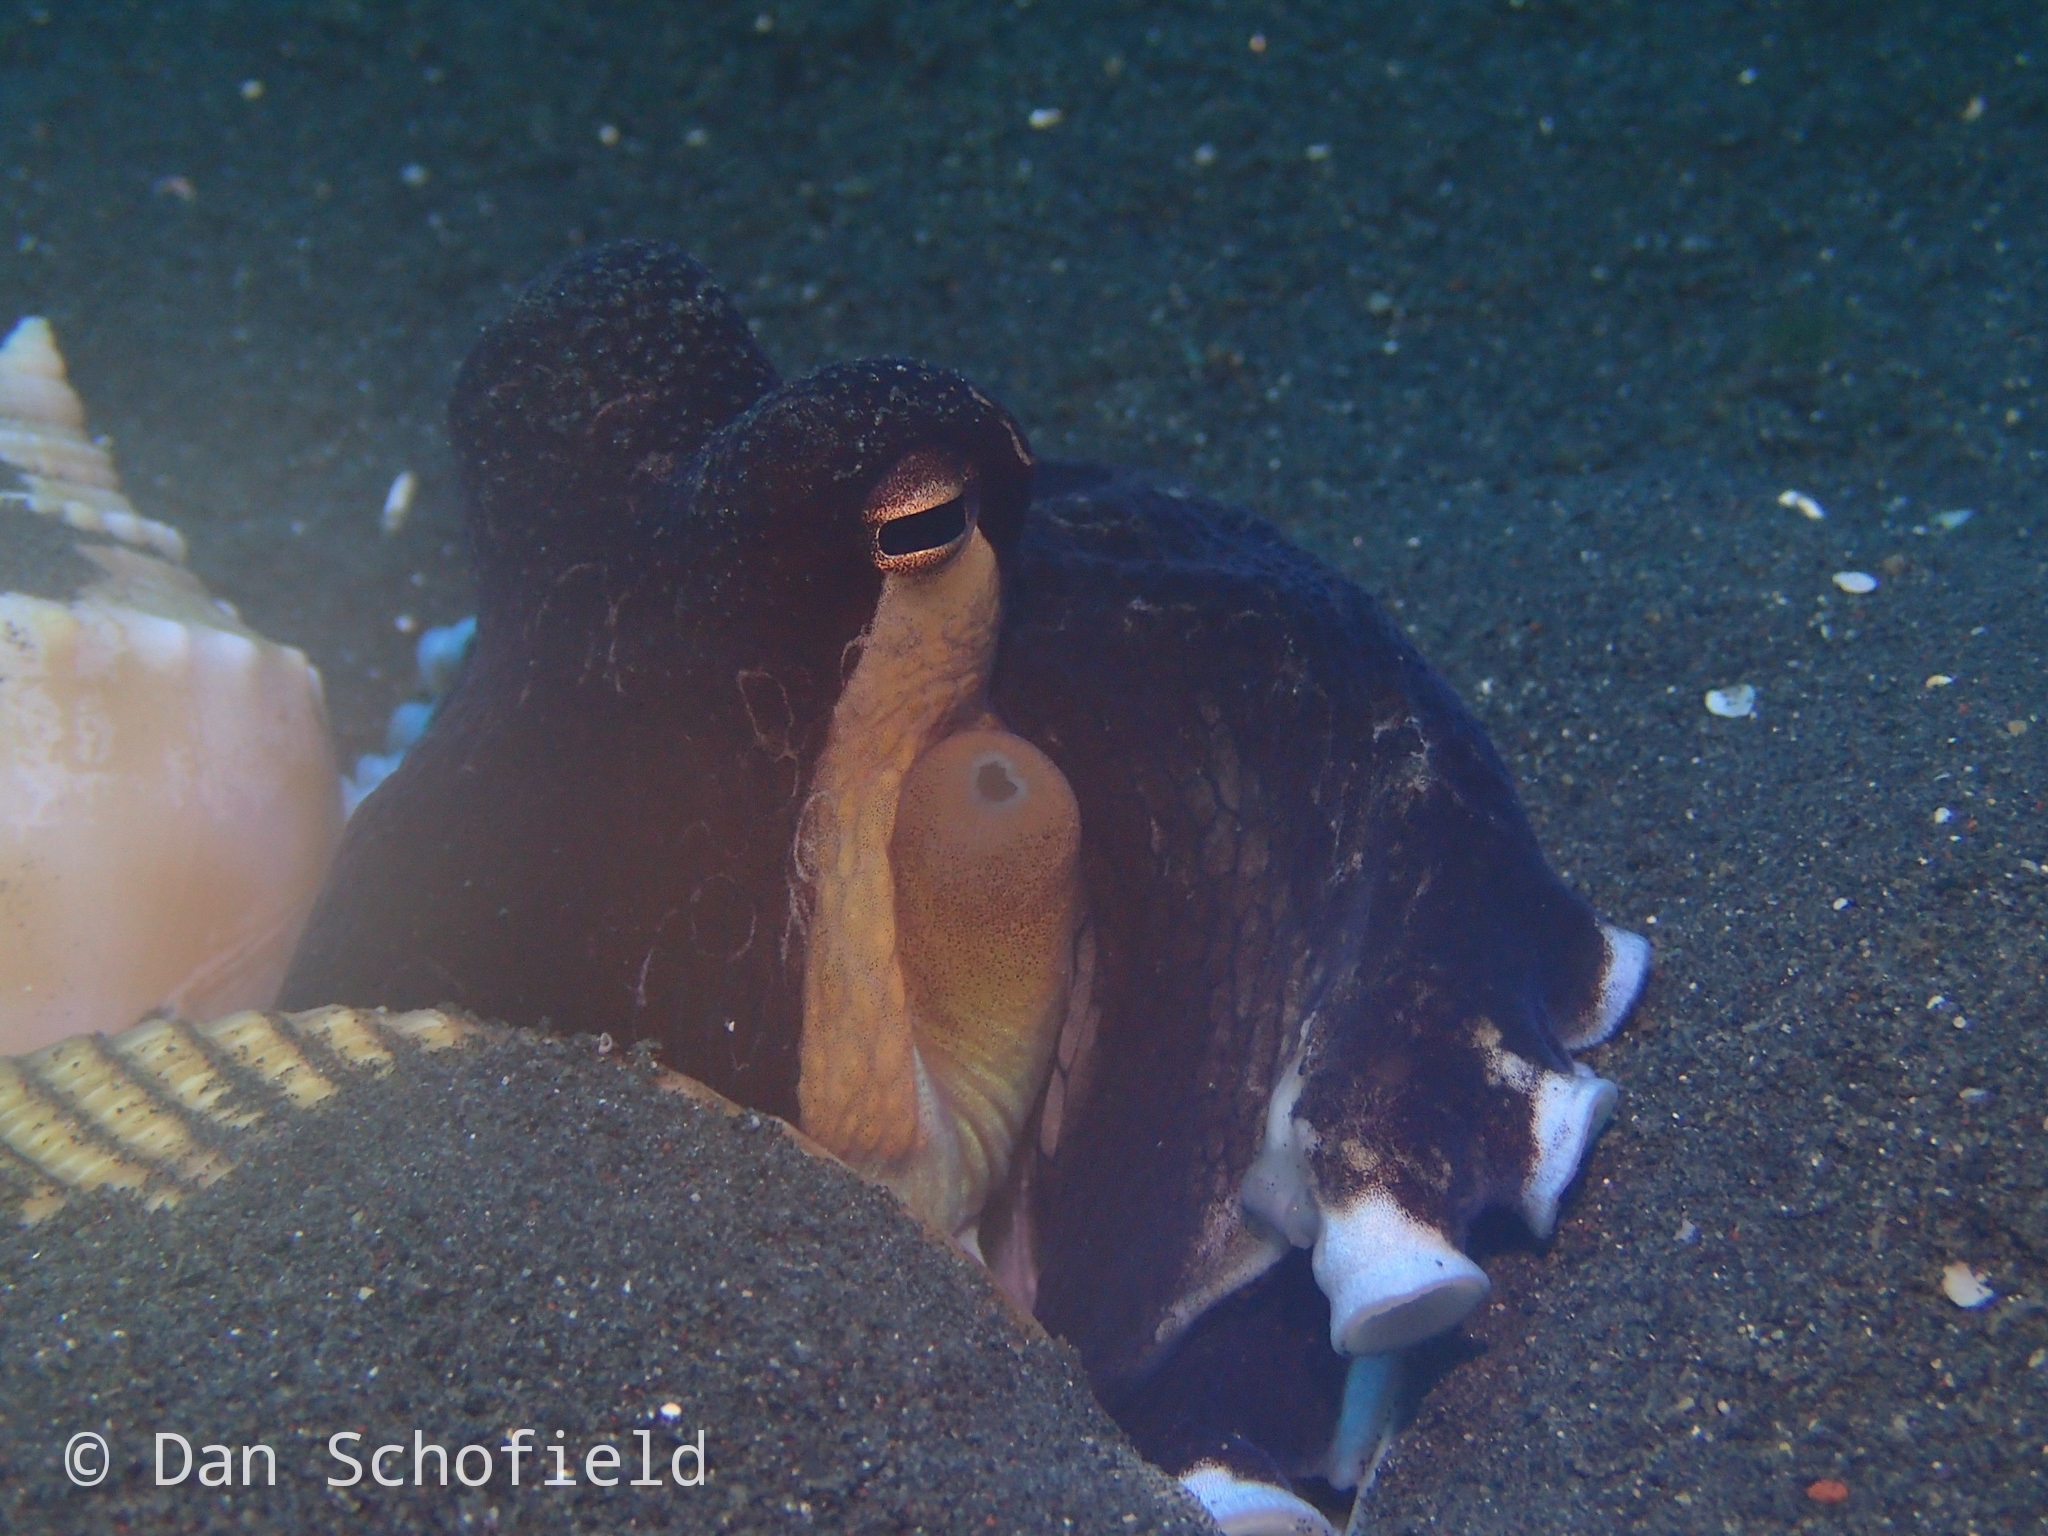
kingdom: Animalia
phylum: Mollusca
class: Cephalopoda
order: Octopoda
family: Octopodidae
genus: Amphioctopus
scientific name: Amphioctopus marginatus
